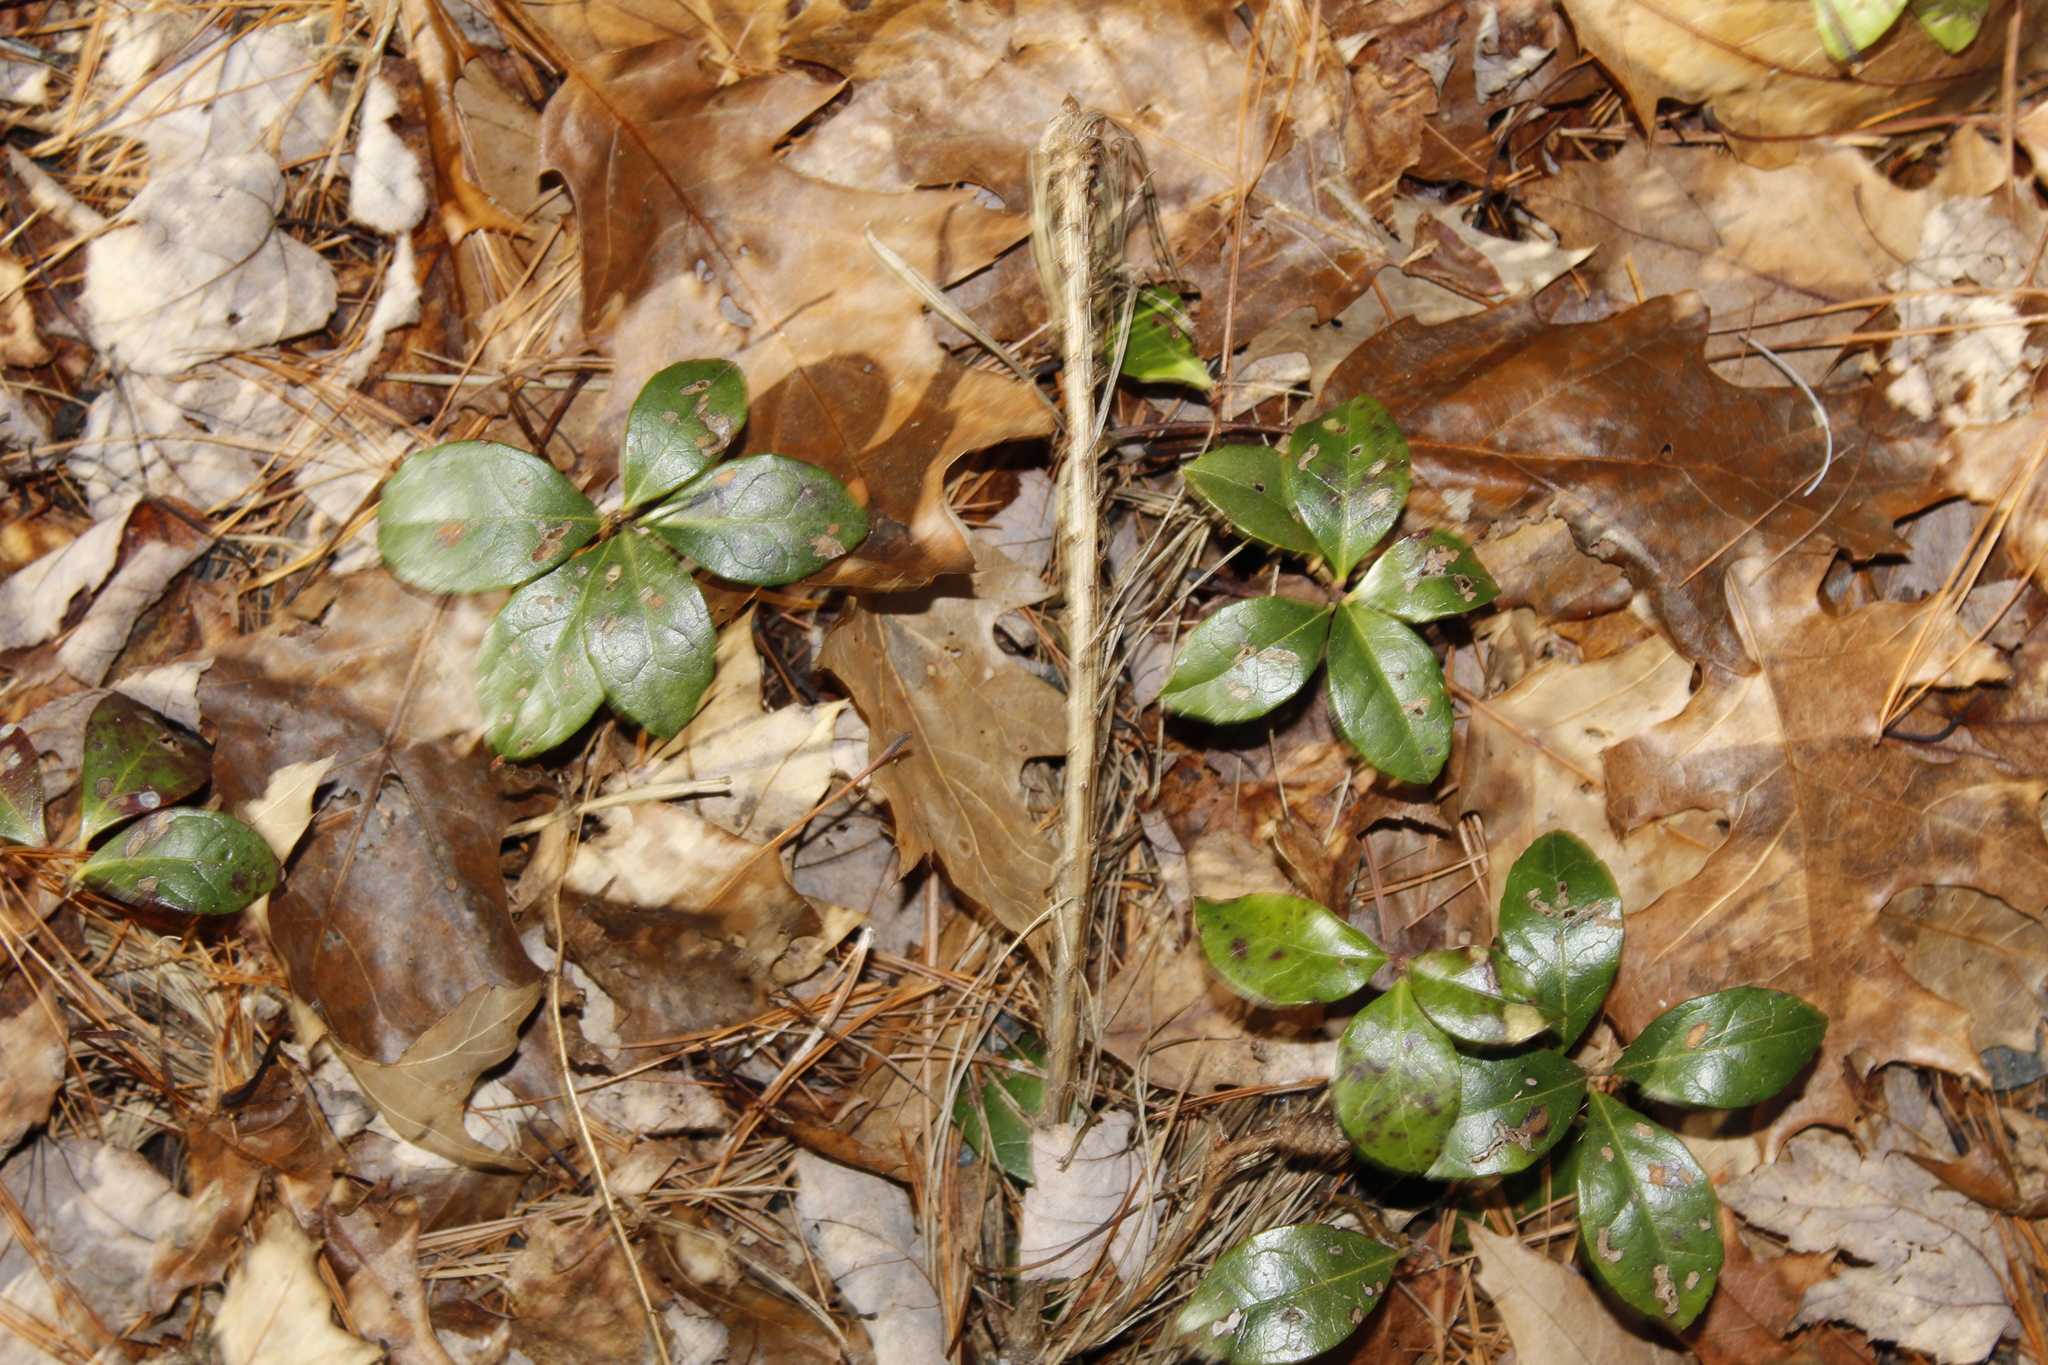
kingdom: Plantae
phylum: Tracheophyta
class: Magnoliopsida
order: Ericales
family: Ericaceae
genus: Gaultheria
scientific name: Gaultheria procumbens
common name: Checkerberry
